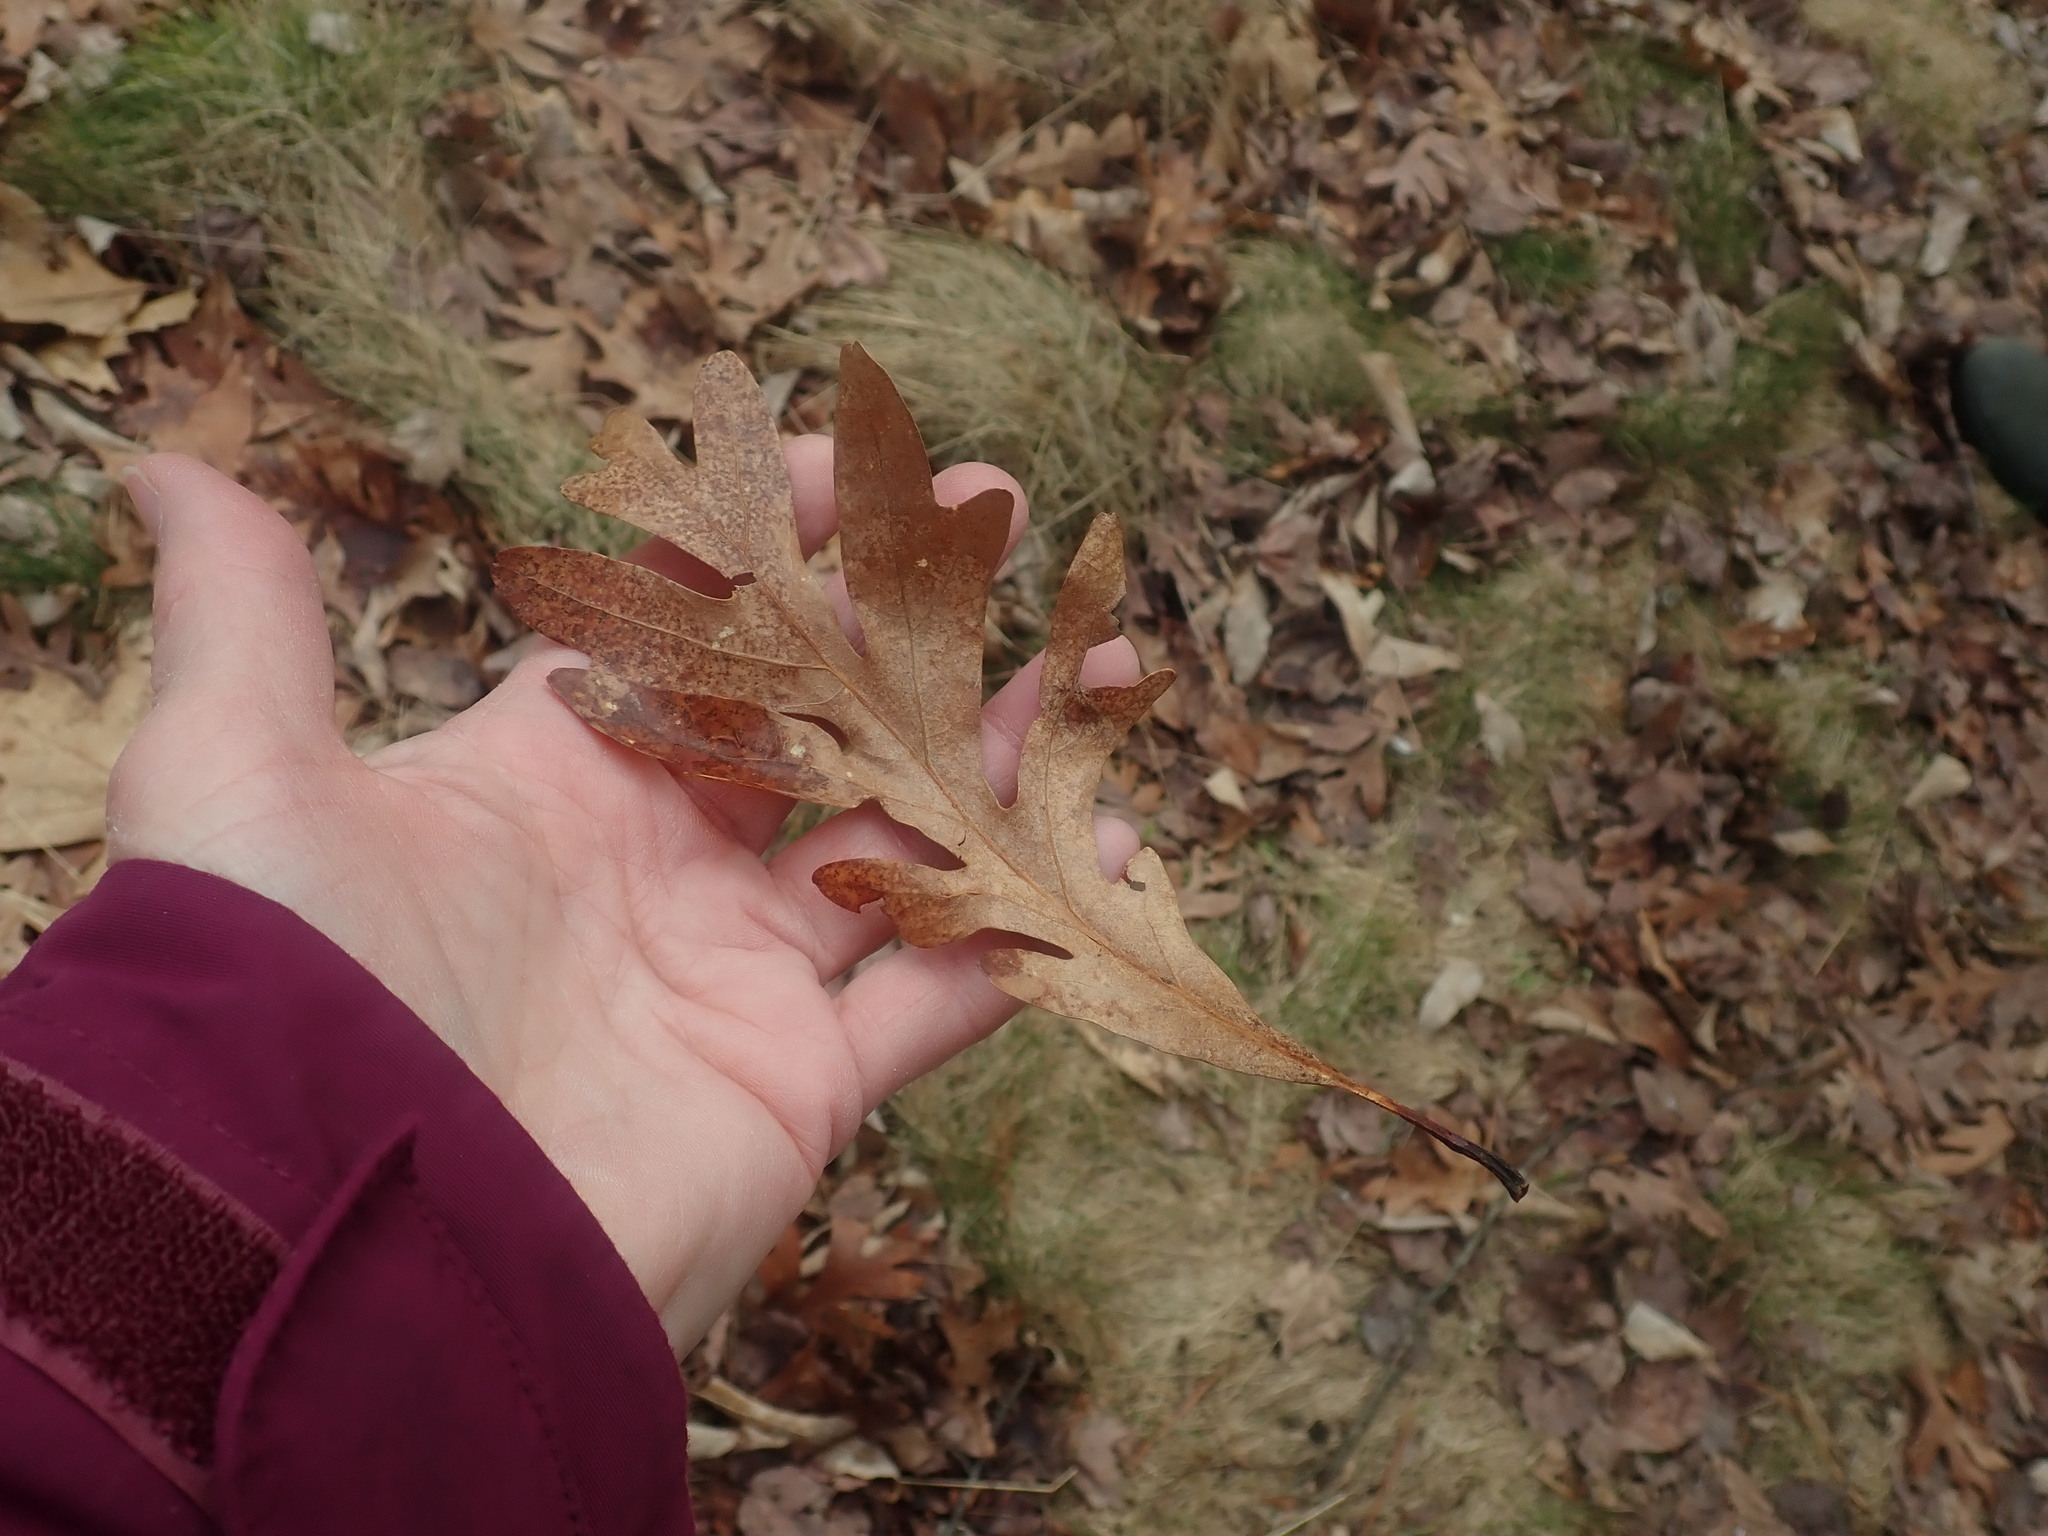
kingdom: Plantae
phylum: Tracheophyta
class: Magnoliopsida
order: Fagales
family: Fagaceae
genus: Quercus
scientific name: Quercus alba
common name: White oak
